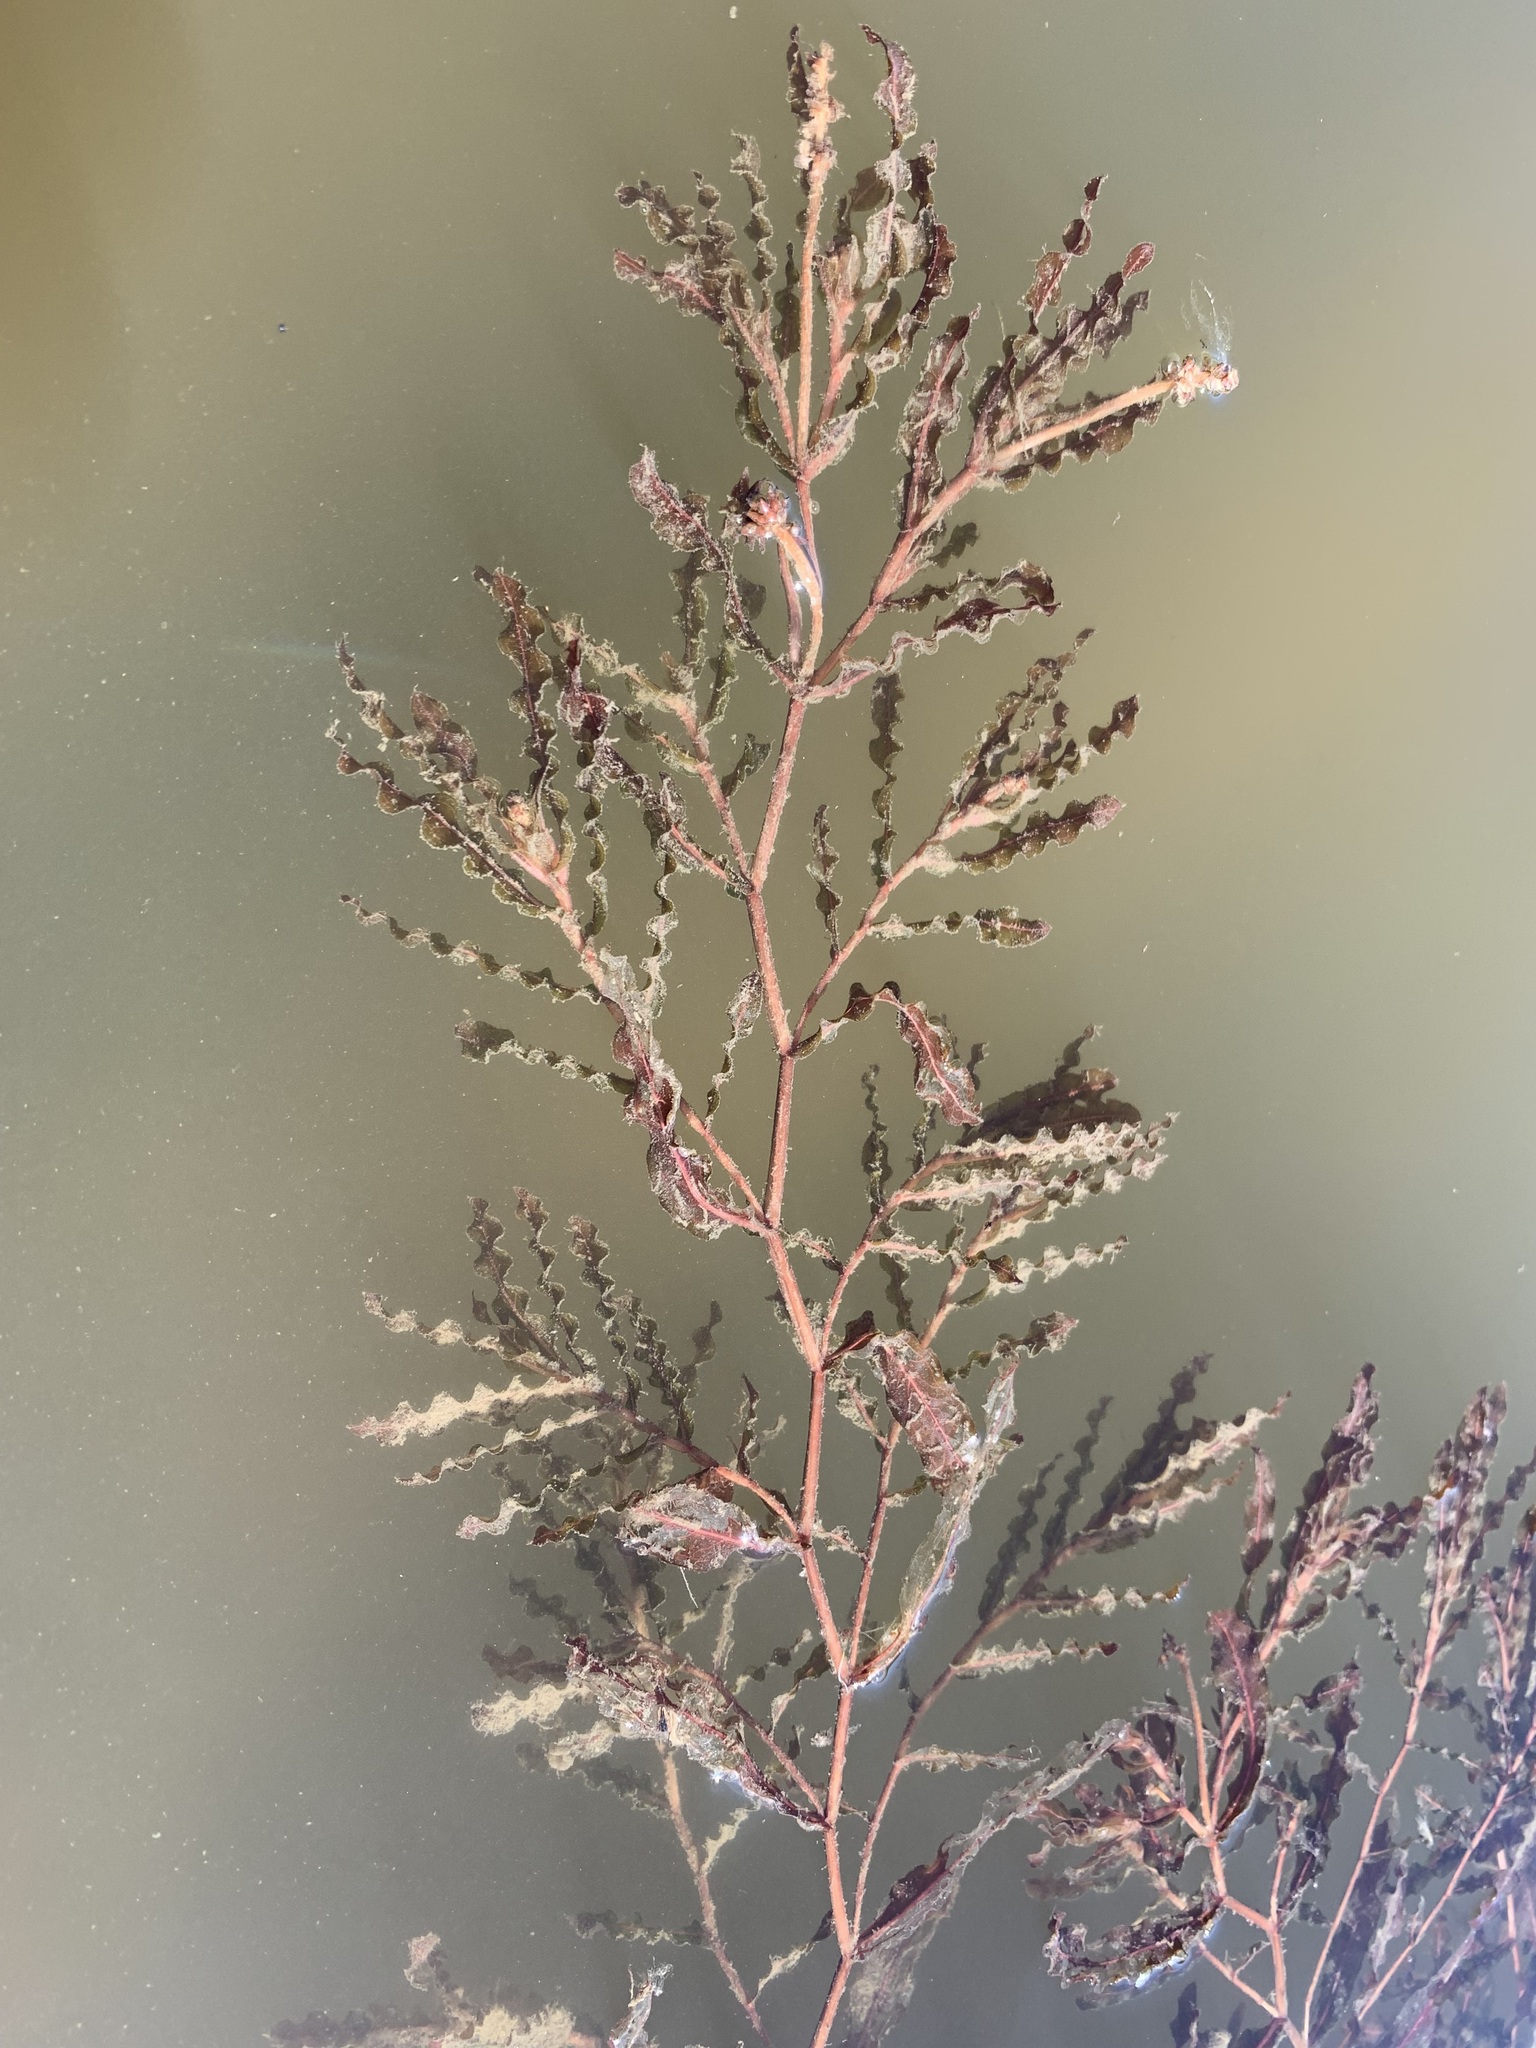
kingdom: Plantae
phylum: Tracheophyta
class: Liliopsida
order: Alismatales
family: Potamogetonaceae
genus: Potamogeton
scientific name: Potamogeton crispus
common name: Curled pondweed
